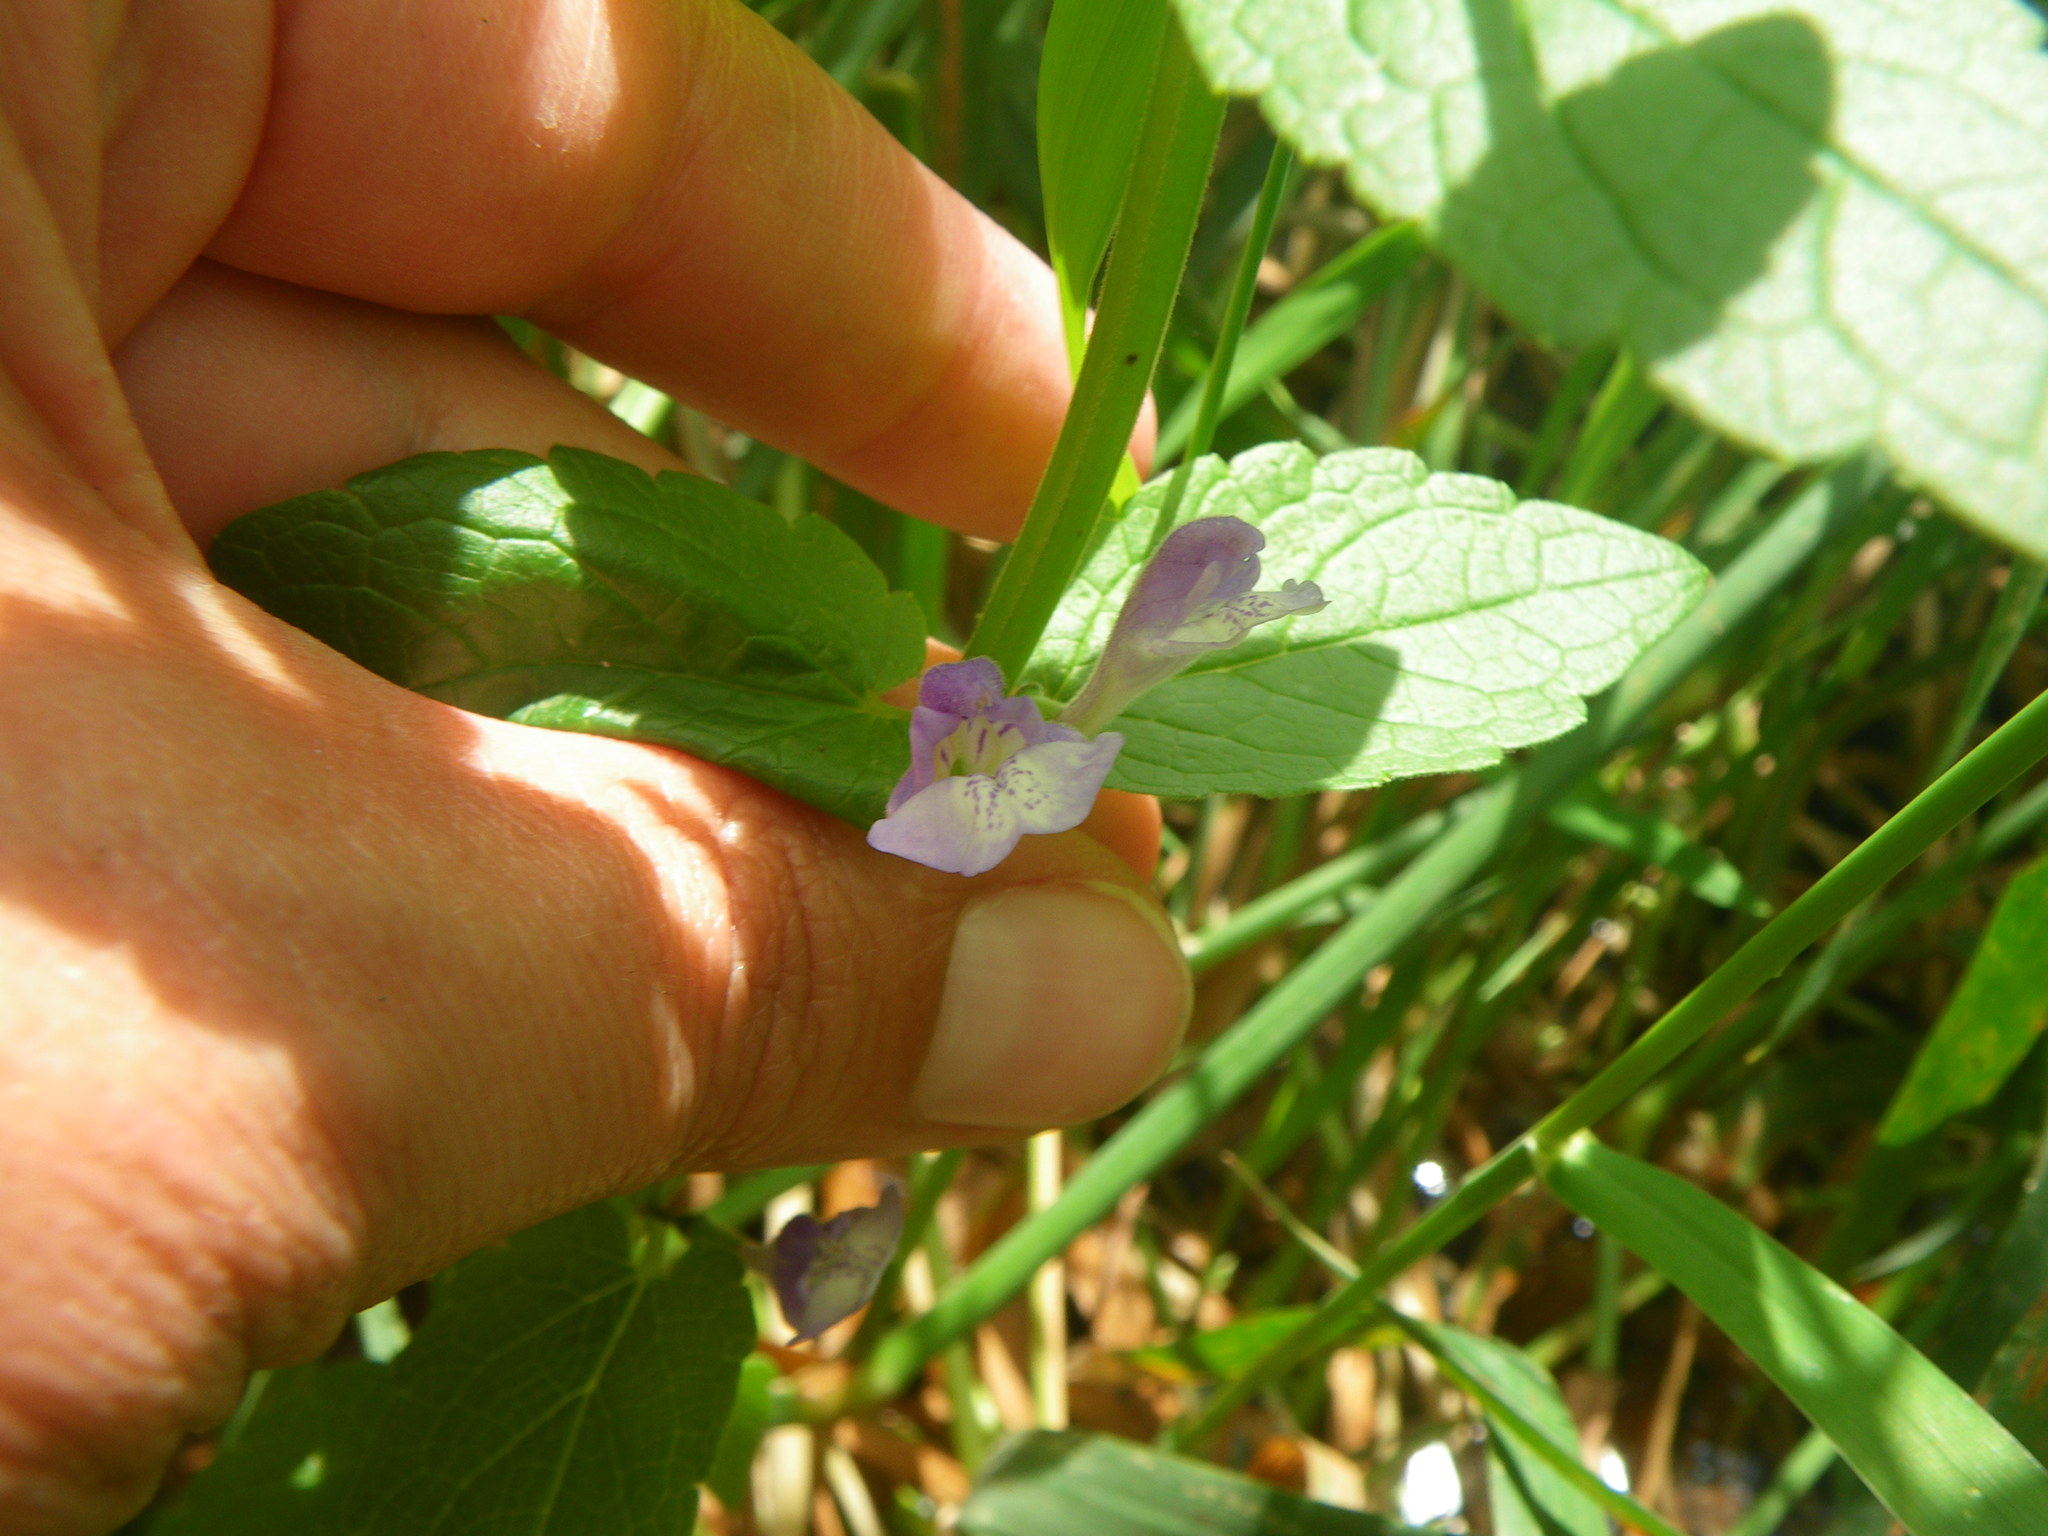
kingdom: Plantae
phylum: Tracheophyta
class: Magnoliopsida
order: Lamiales
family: Lamiaceae
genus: Scutellaria
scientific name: Scutellaria galericulata
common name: Skullcap
